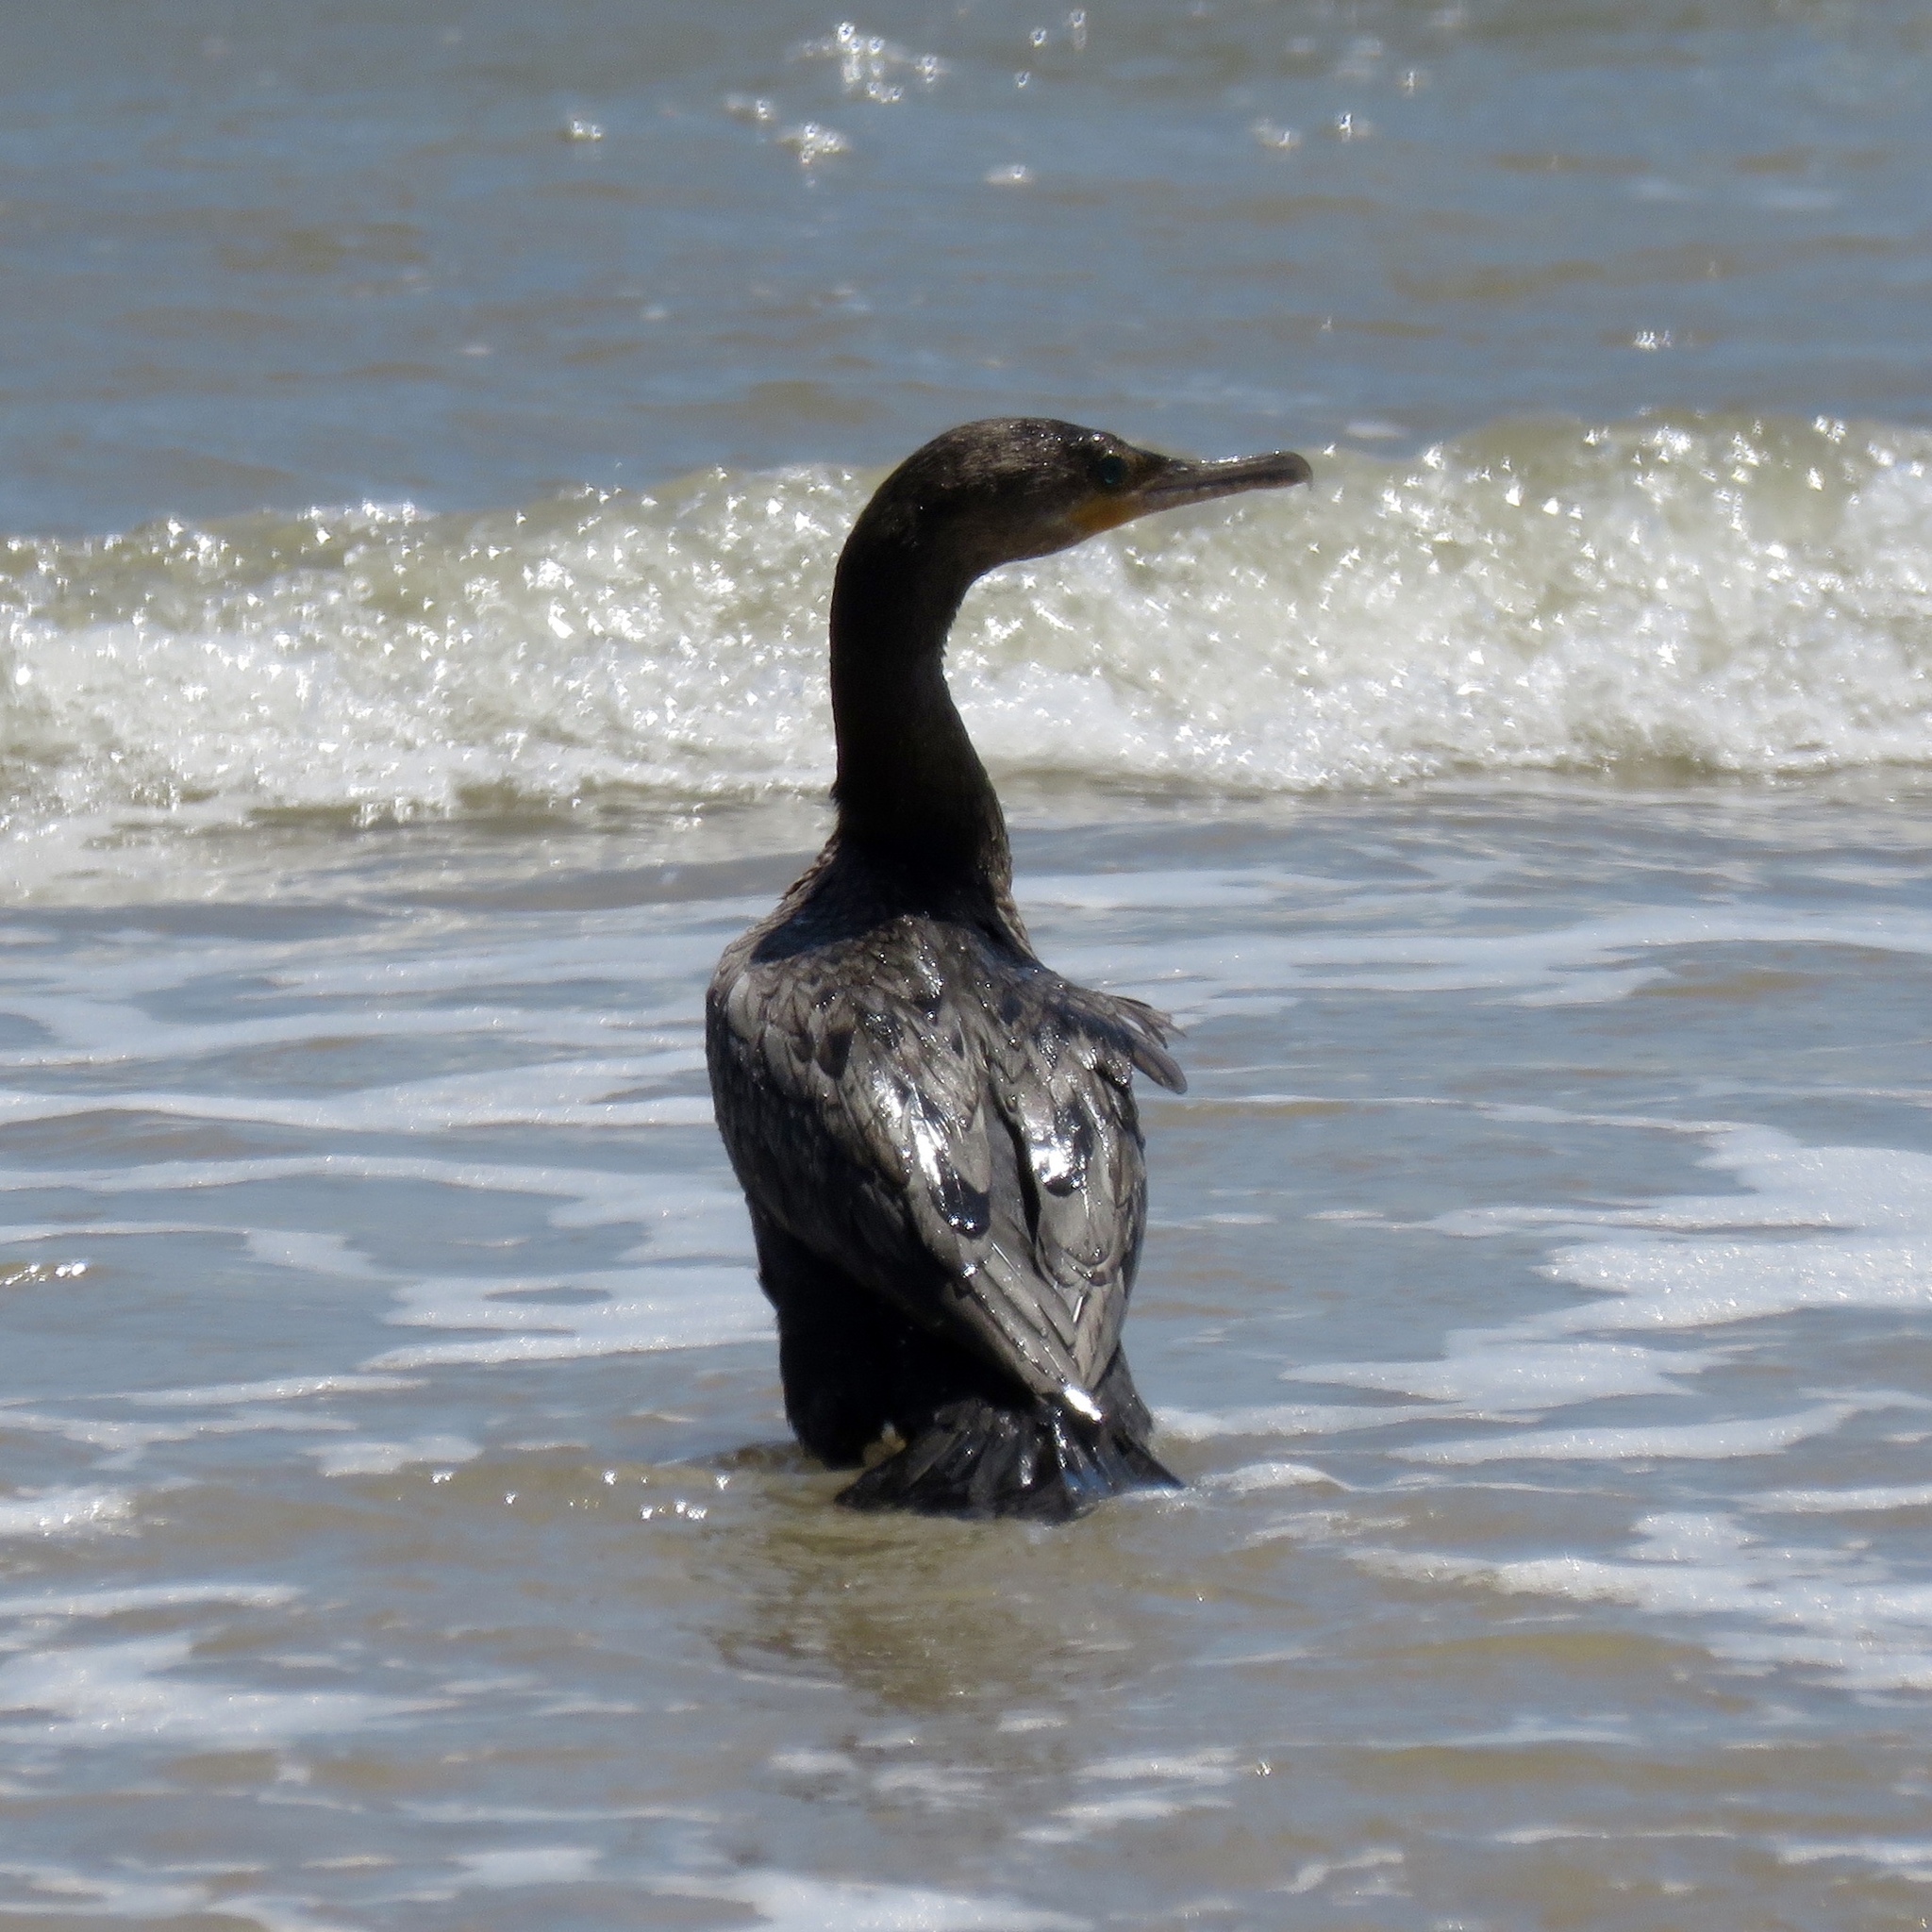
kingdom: Animalia
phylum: Chordata
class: Aves
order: Suliformes
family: Phalacrocoracidae
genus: Phalacrocorax
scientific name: Phalacrocorax brasilianus
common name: Neotropic cormorant
